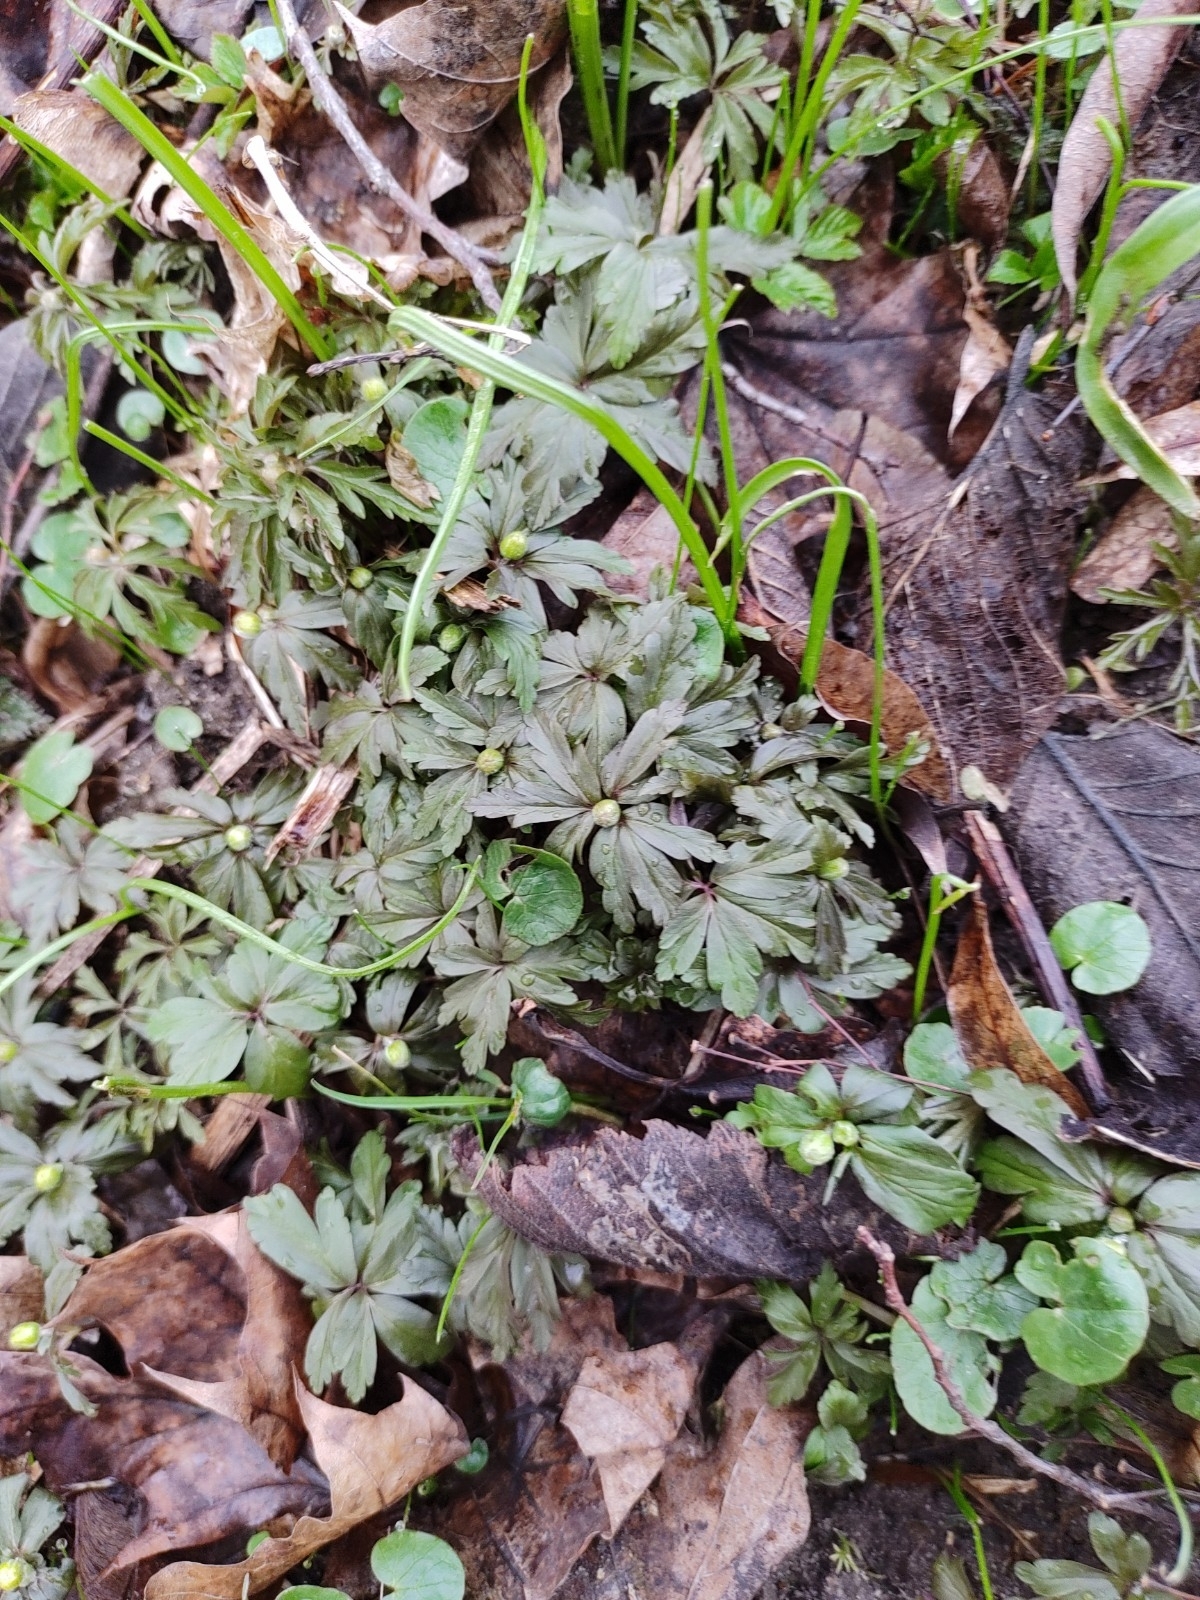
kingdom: Plantae
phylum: Tracheophyta
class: Magnoliopsida
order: Ranunculales
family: Ranunculaceae
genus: Anemone
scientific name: Anemone ranunculoides
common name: Yellow anemone
